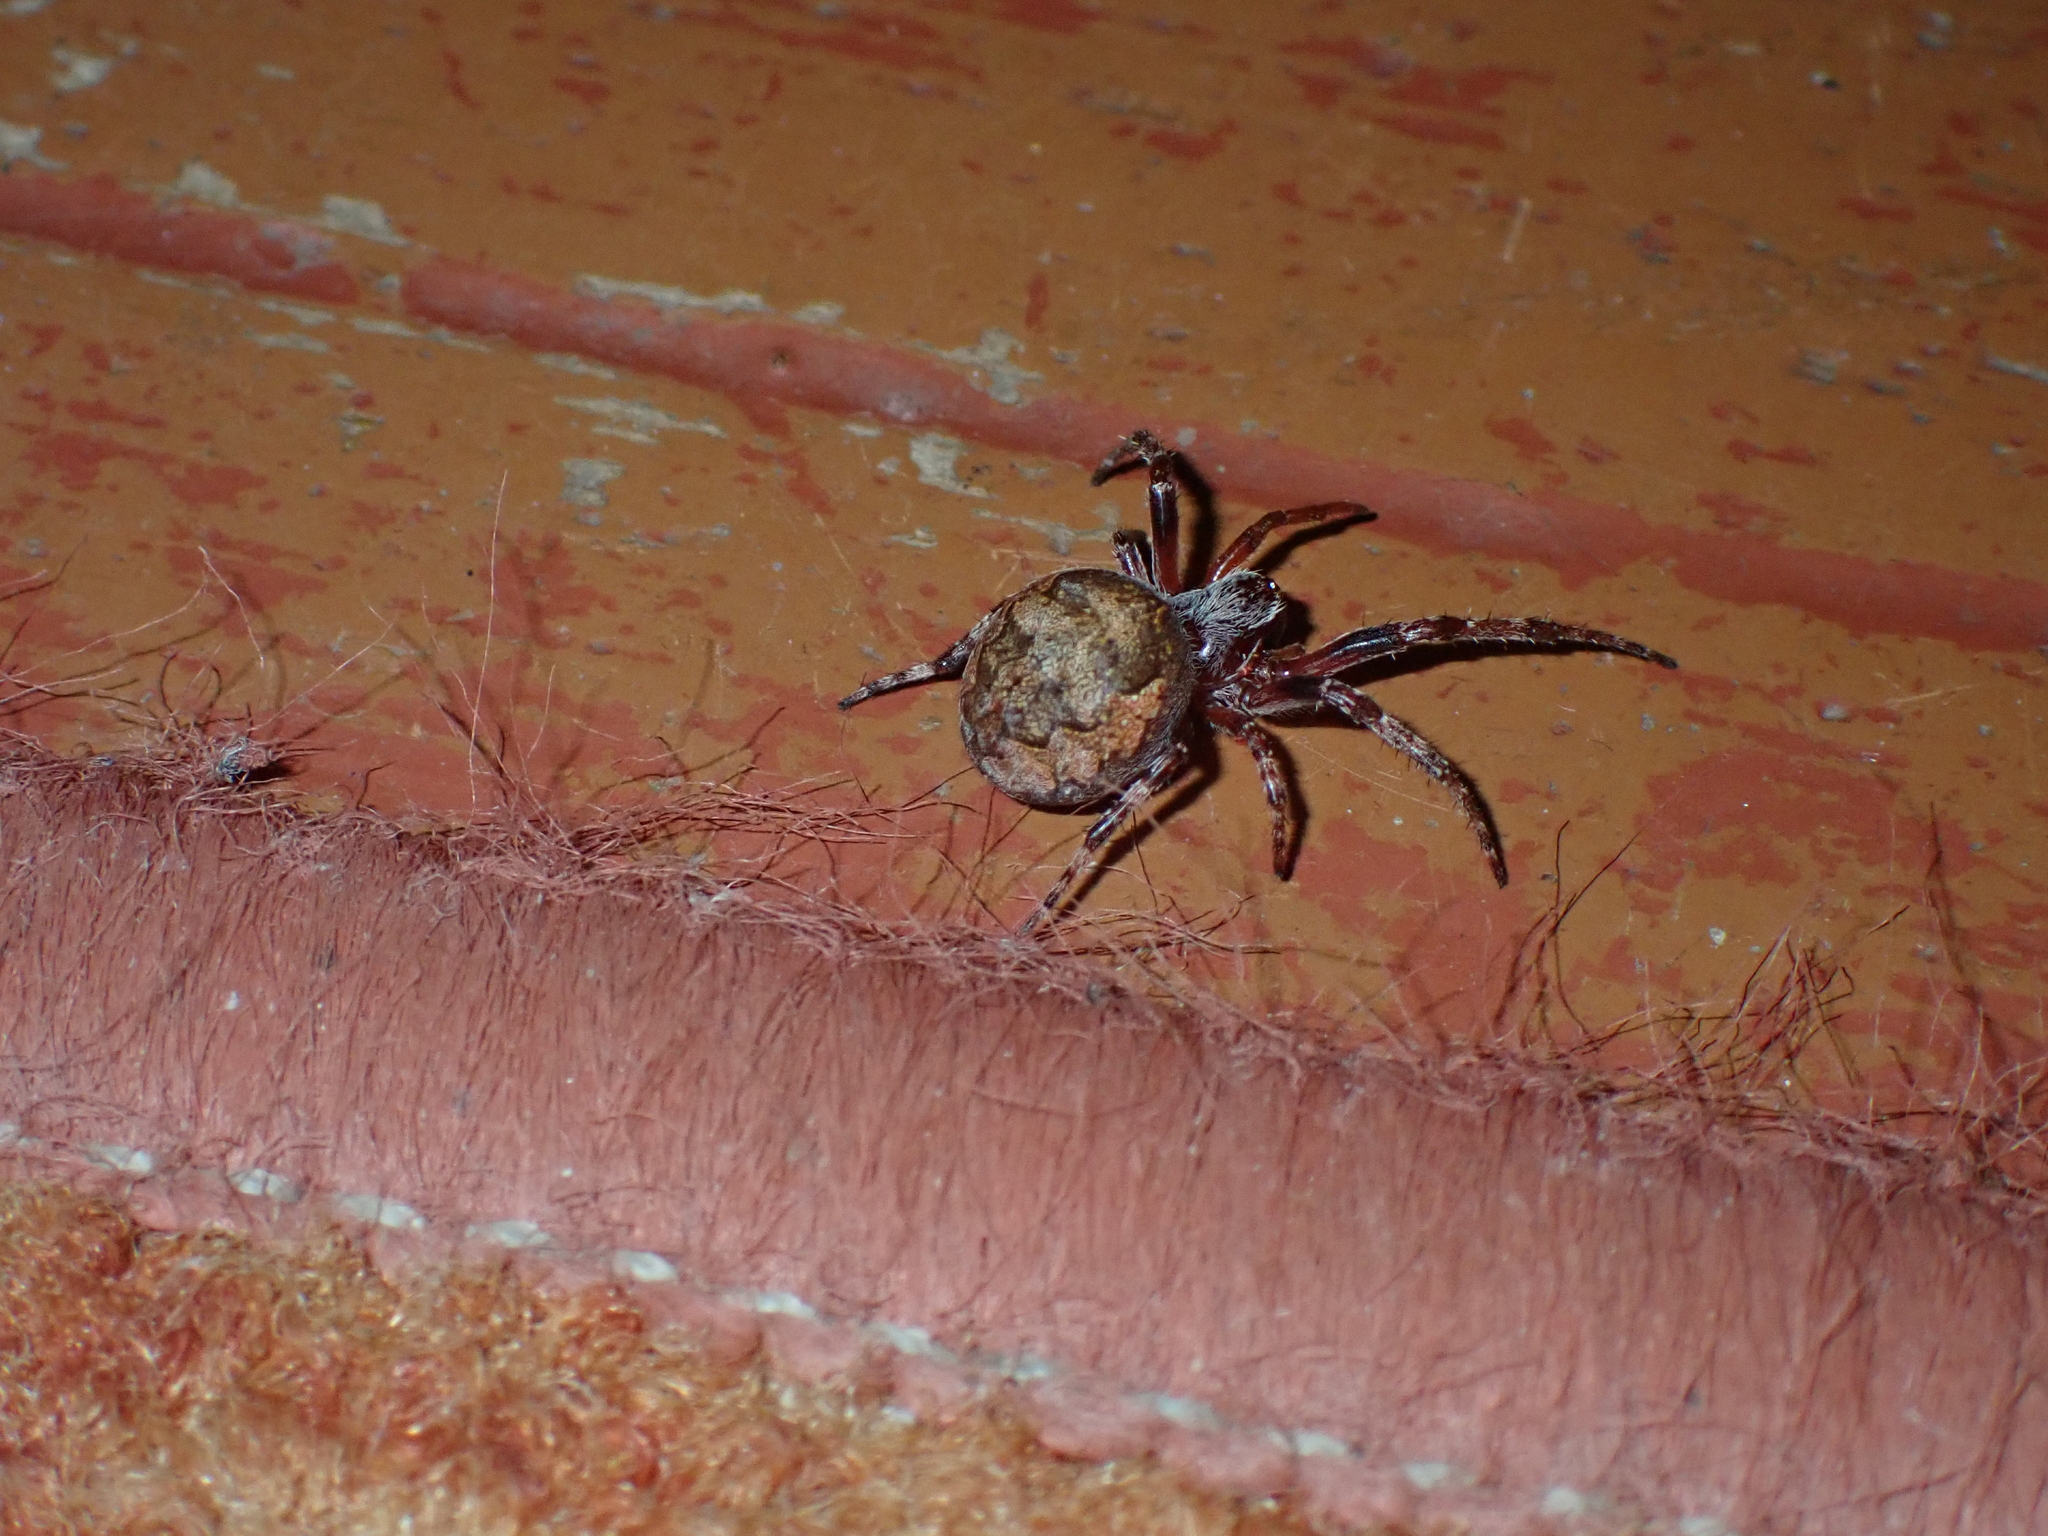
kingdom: Animalia
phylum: Arthropoda
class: Arachnida
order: Araneae
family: Araneidae
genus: Larinioides
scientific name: Larinioides patagiatus
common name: Ornamental orbweaver
